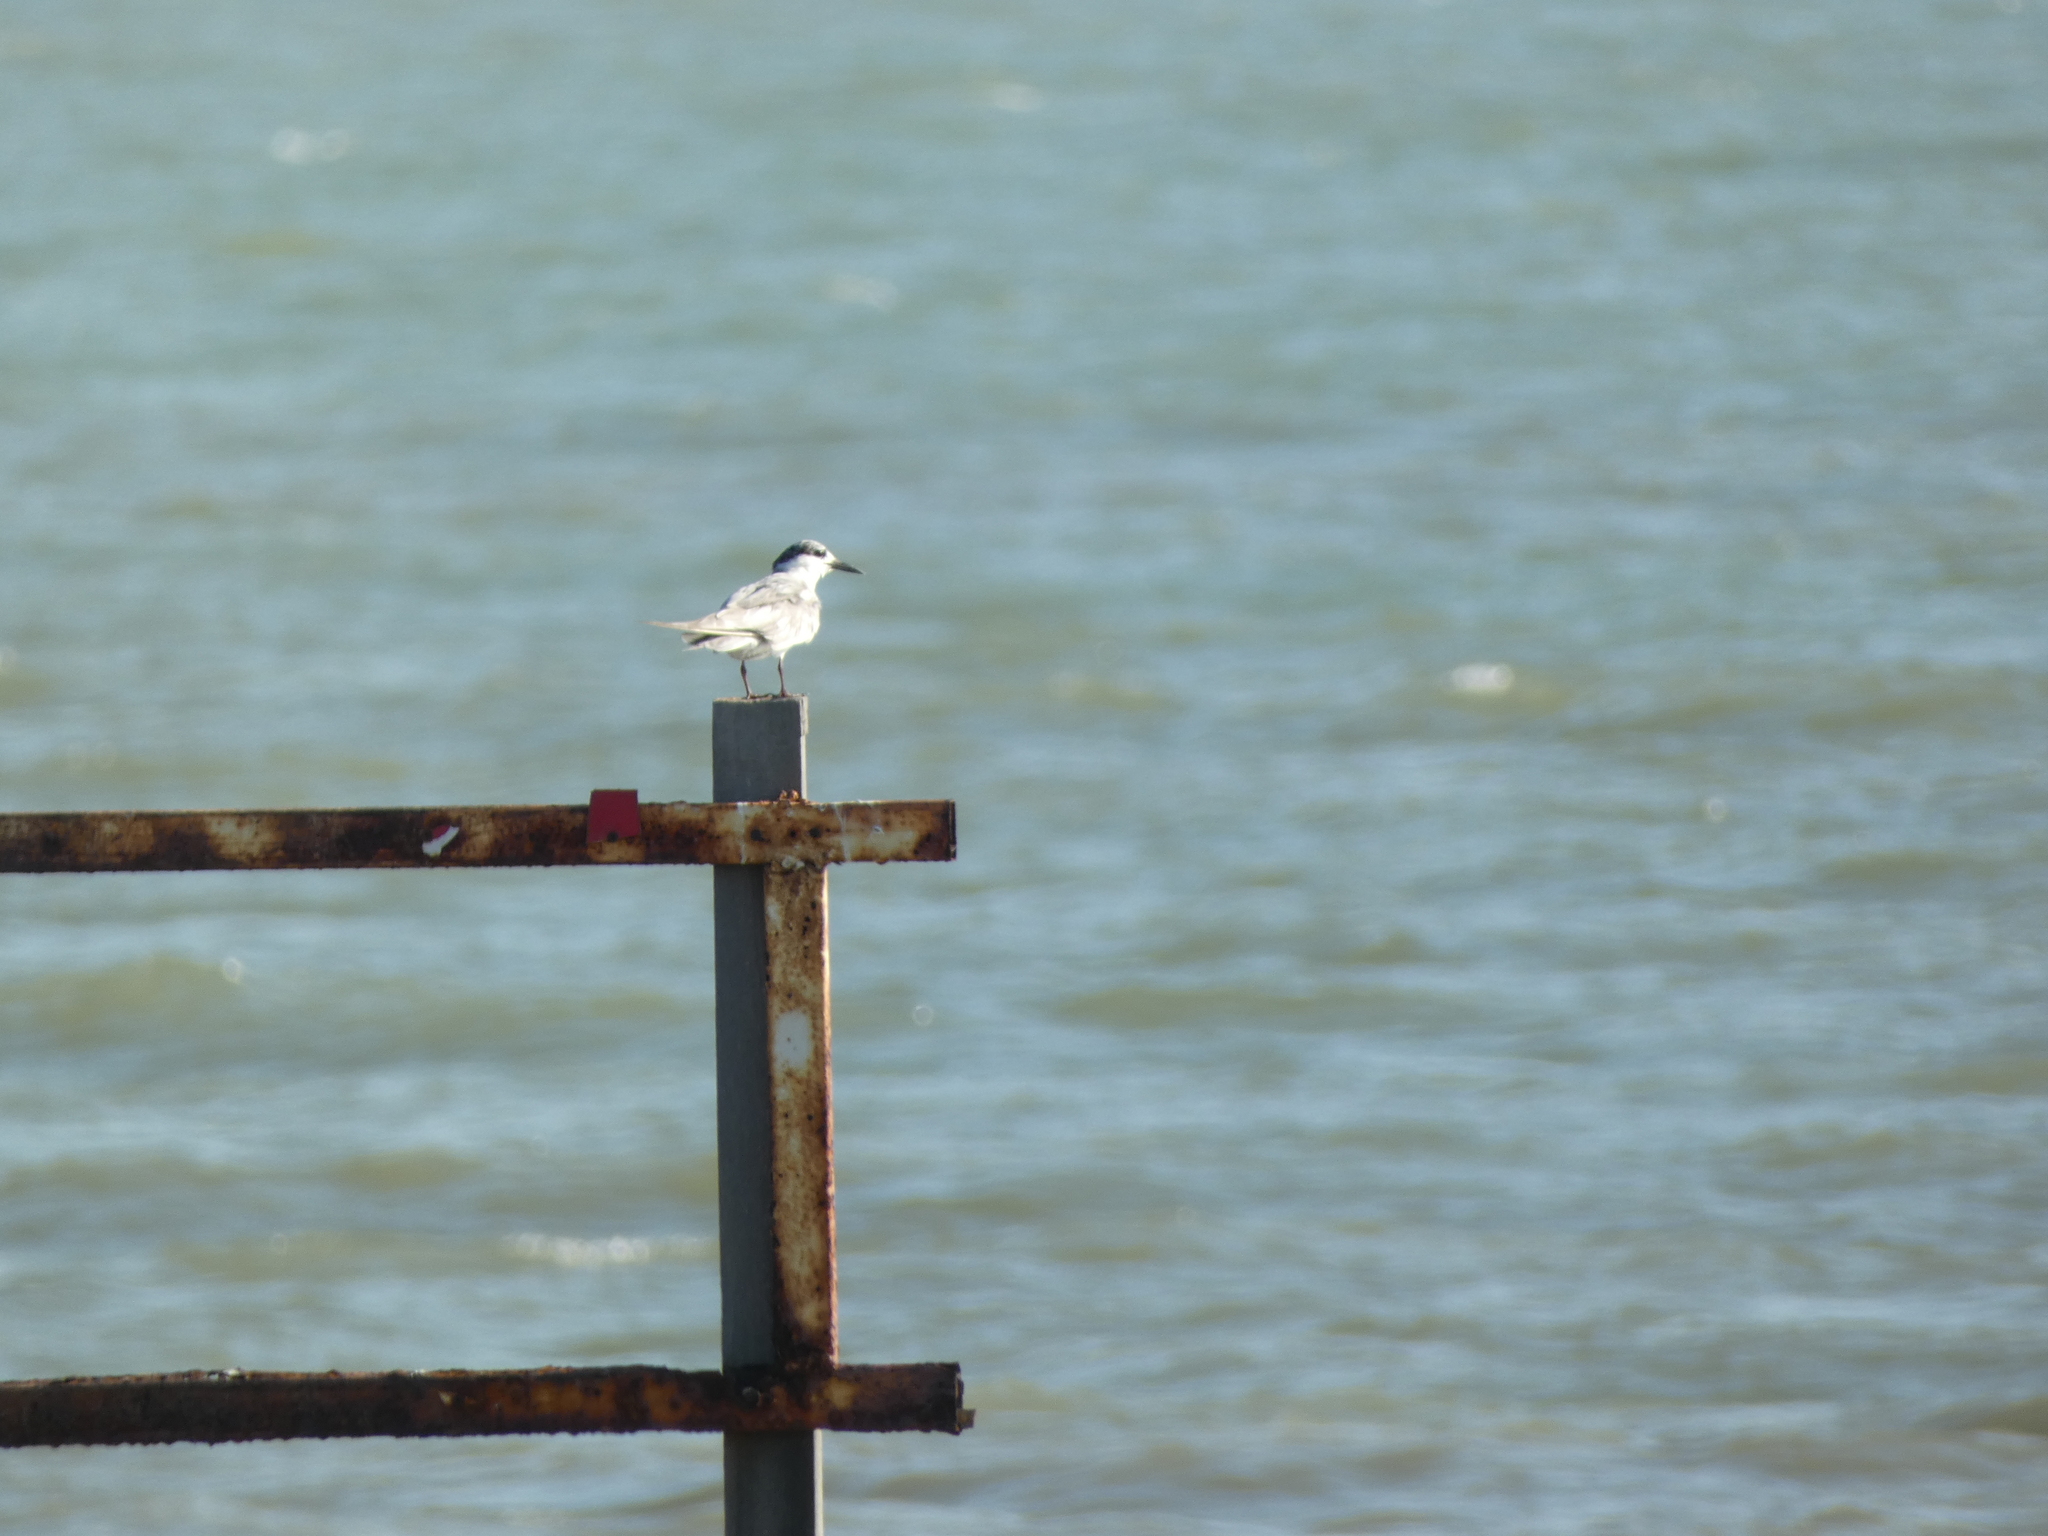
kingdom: Animalia
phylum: Chordata
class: Aves
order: Charadriiformes
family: Laridae
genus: Chlidonias
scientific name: Chlidonias hybrida
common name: Whiskered tern
